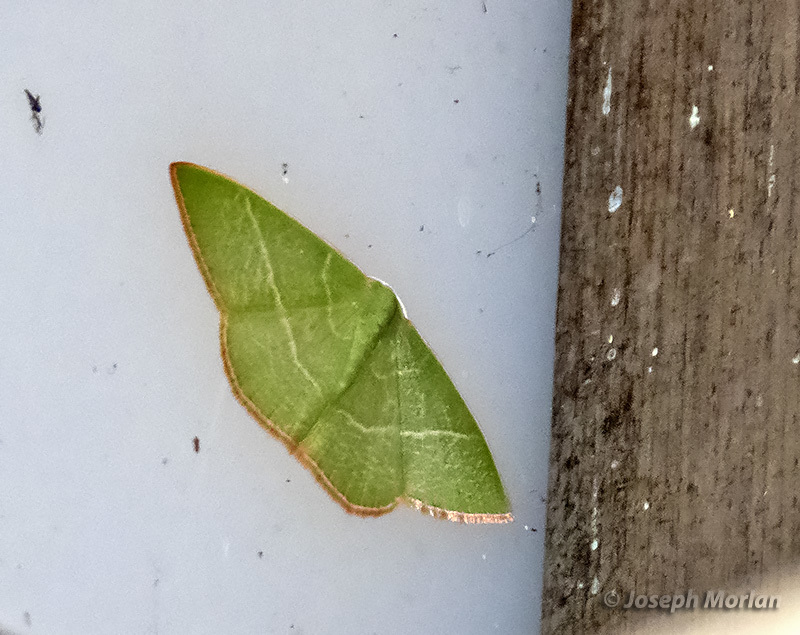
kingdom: Animalia
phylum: Arthropoda
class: Insecta
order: Lepidoptera
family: Geometridae
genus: Nemoria
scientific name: Nemoria leptalea
